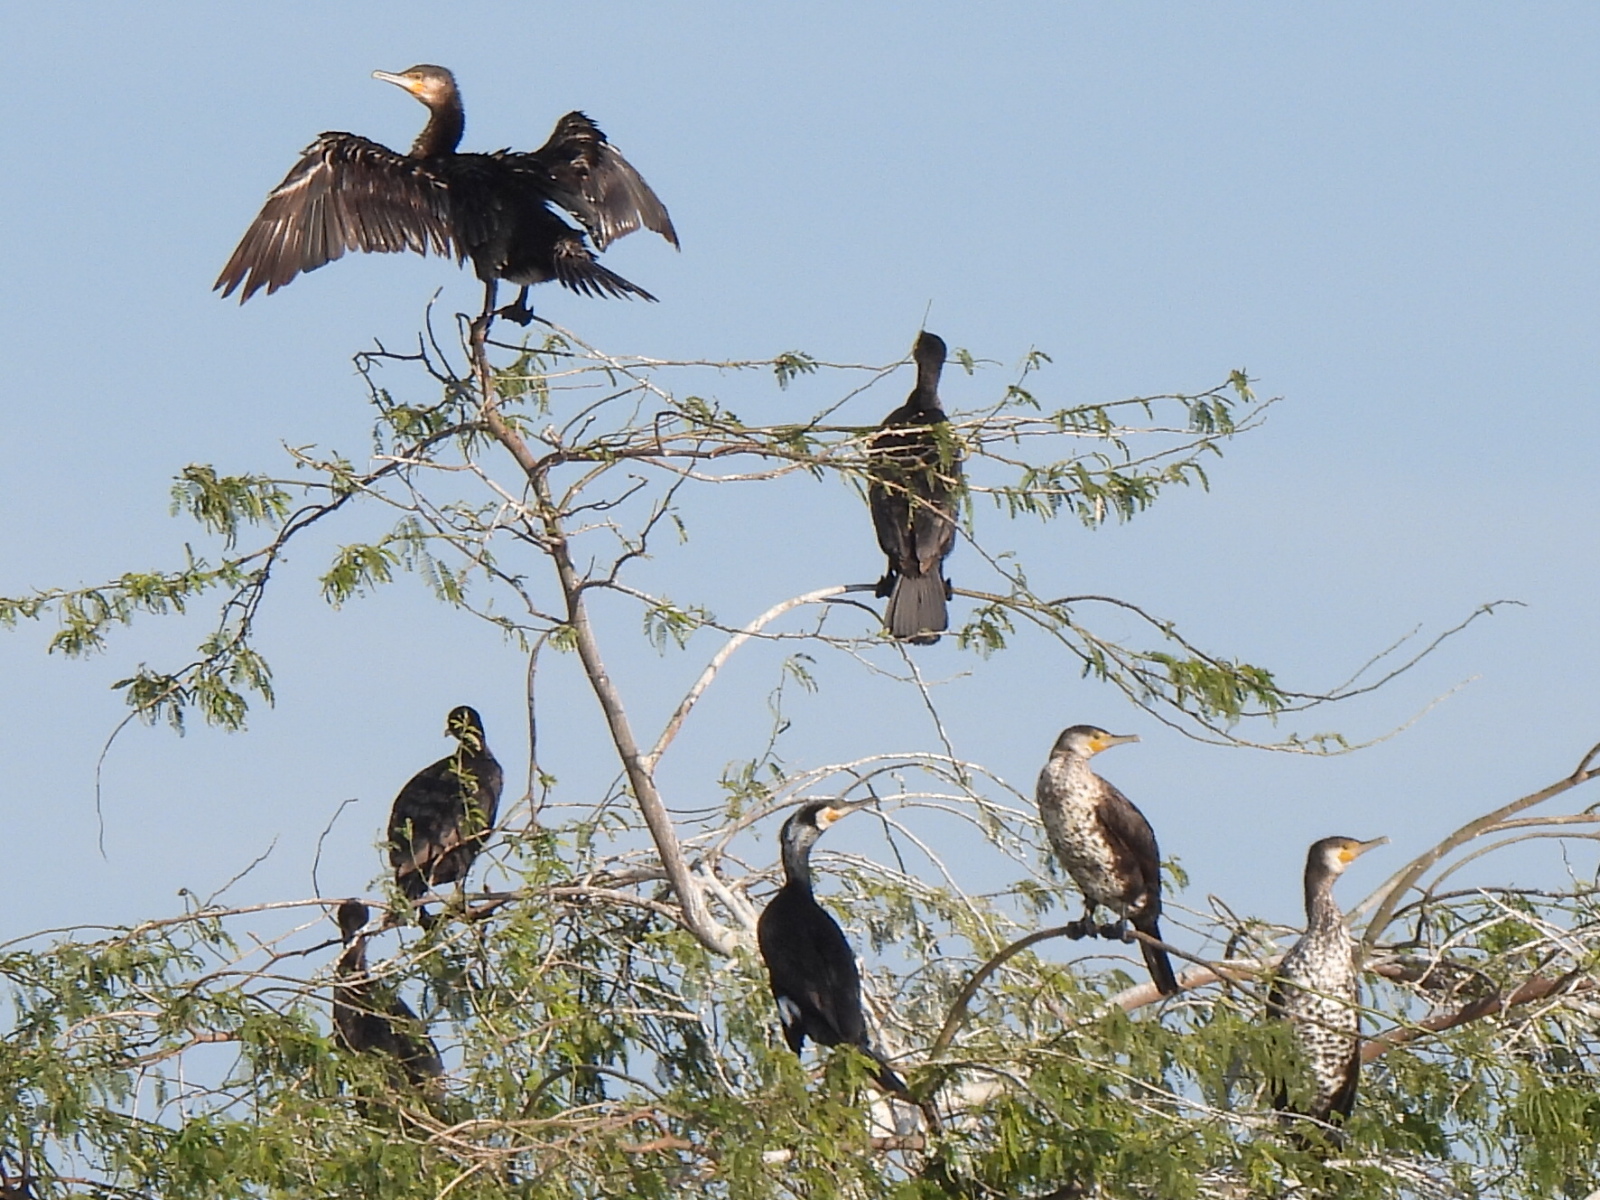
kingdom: Animalia
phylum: Chordata
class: Aves
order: Suliformes
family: Phalacrocoracidae
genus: Phalacrocorax
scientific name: Phalacrocorax carbo
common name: Great cormorant
